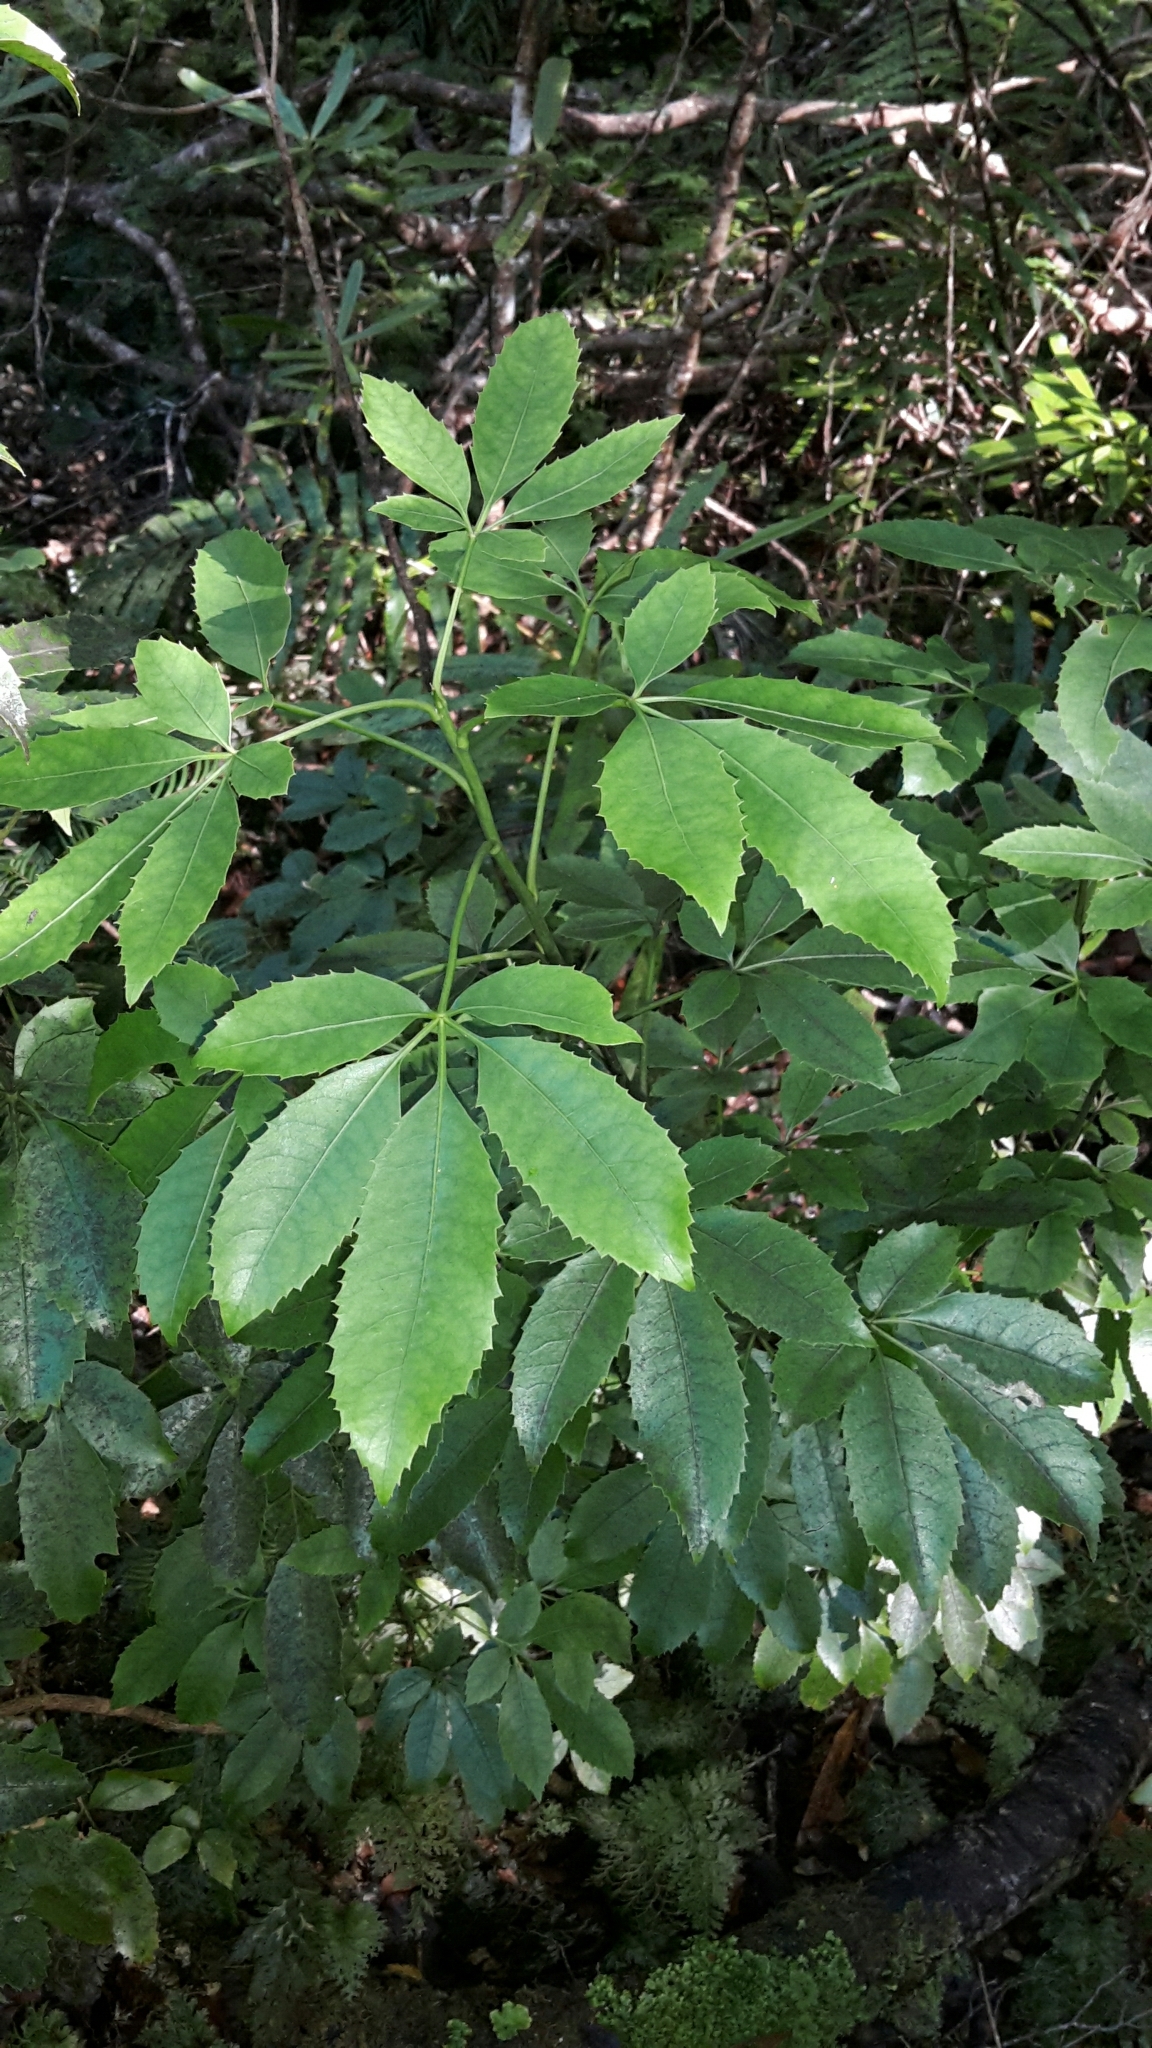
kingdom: Plantae
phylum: Tracheophyta
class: Magnoliopsida
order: Apiales
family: Araliaceae
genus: Neopanax
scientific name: Neopanax arboreus
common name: Five-fingers
